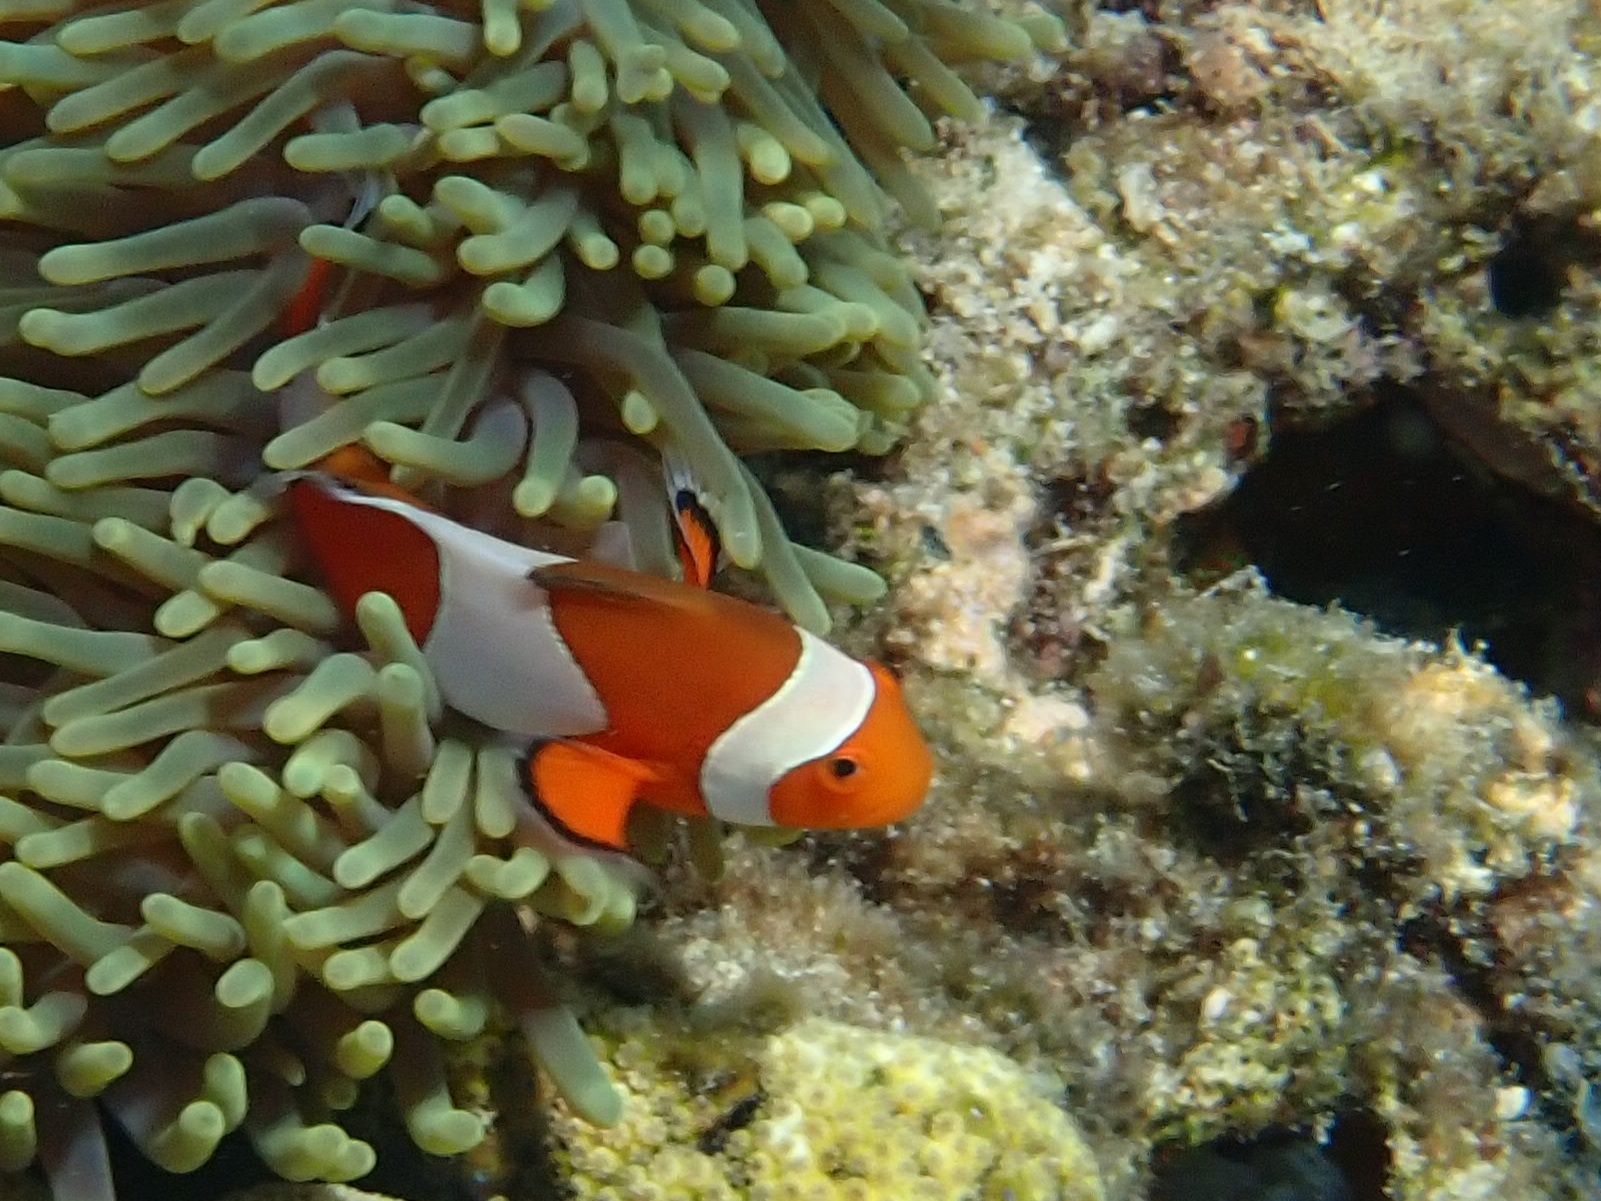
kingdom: Animalia
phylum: Chordata
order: Perciformes
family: Pomacentridae
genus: Amphiprion
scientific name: Amphiprion ocellaris
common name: Clown anemonefish
